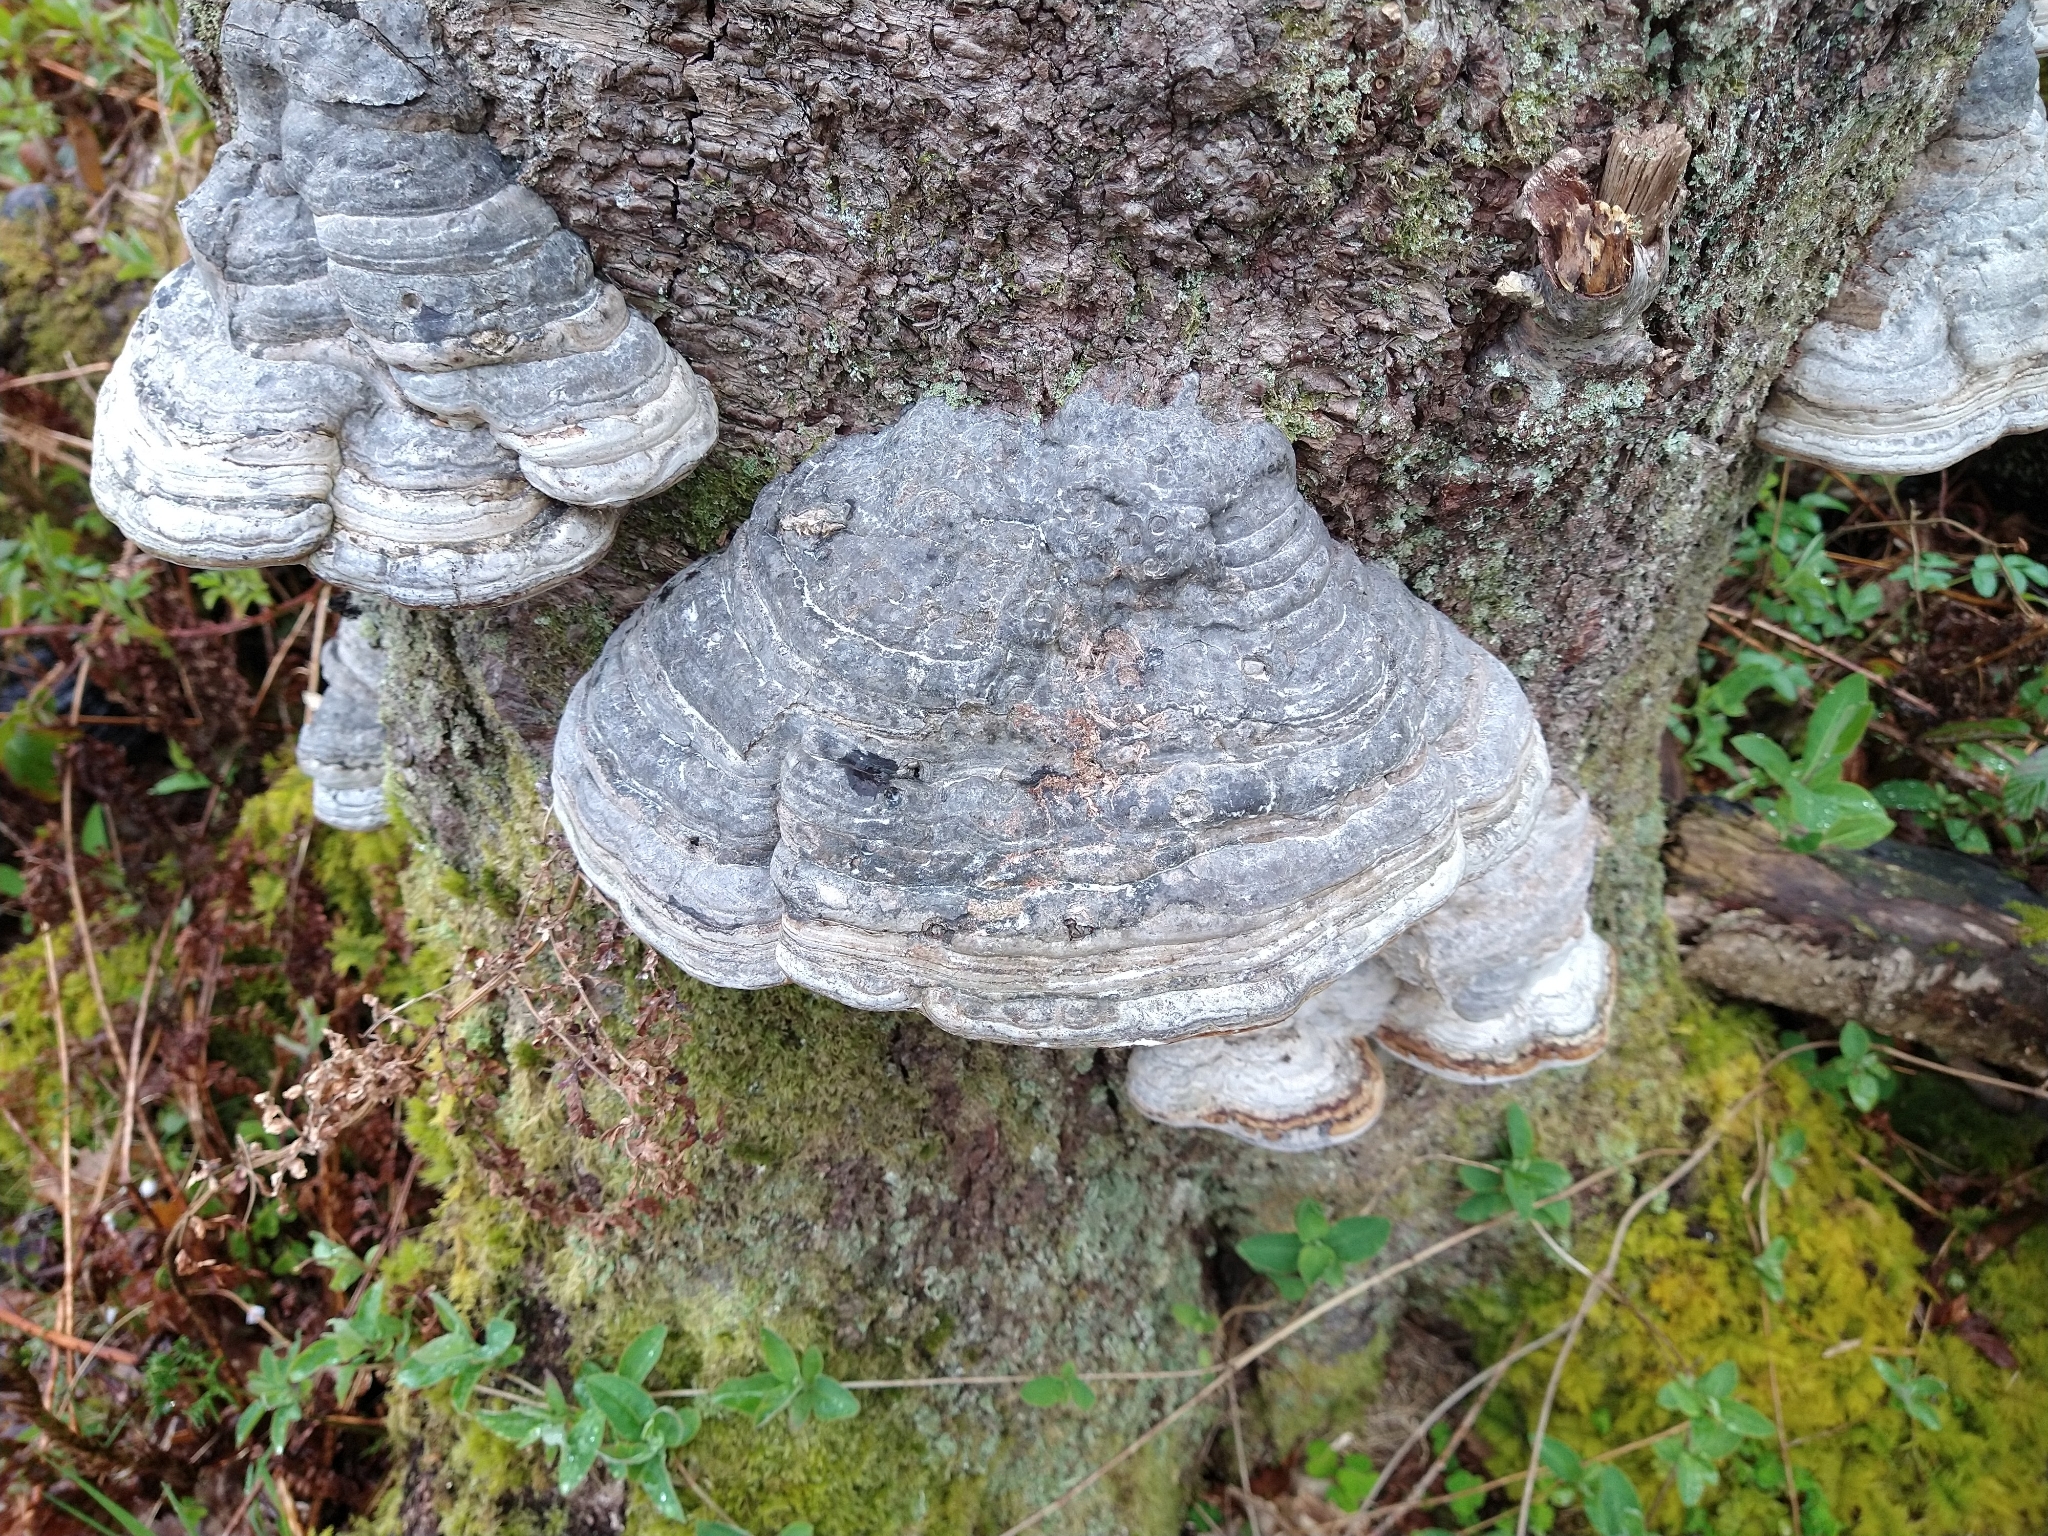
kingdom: Fungi
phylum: Basidiomycota
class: Agaricomycetes
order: Polyporales
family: Polyporaceae
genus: Fomes
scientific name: Fomes fomentarius
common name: Hoof fungus
